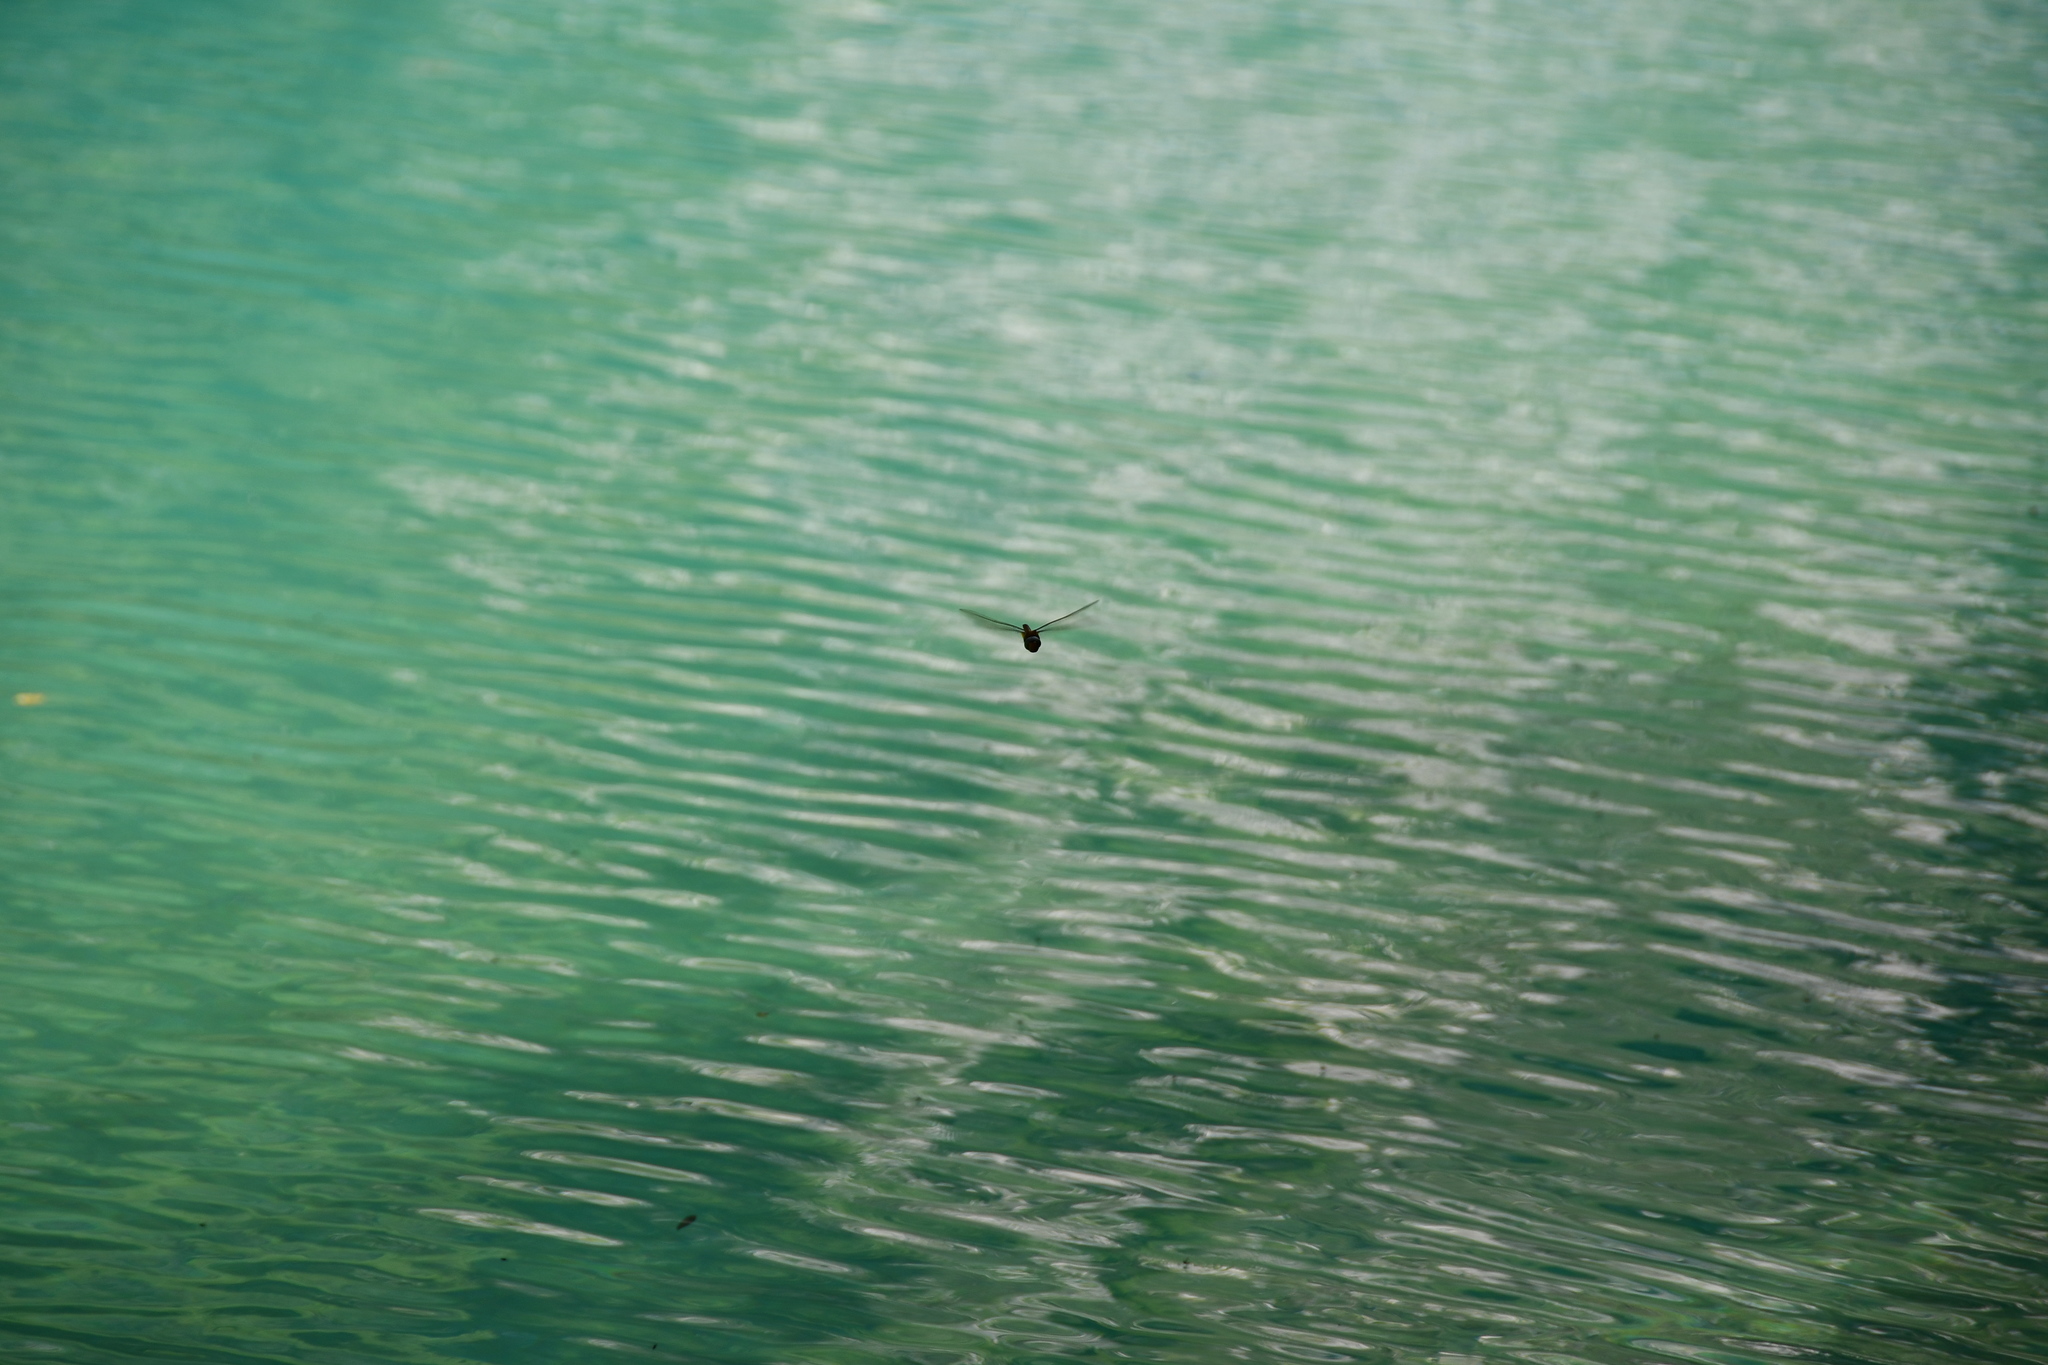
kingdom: Animalia
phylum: Arthropoda
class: Insecta
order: Odonata
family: Aeshnidae
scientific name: Aeshnidae
